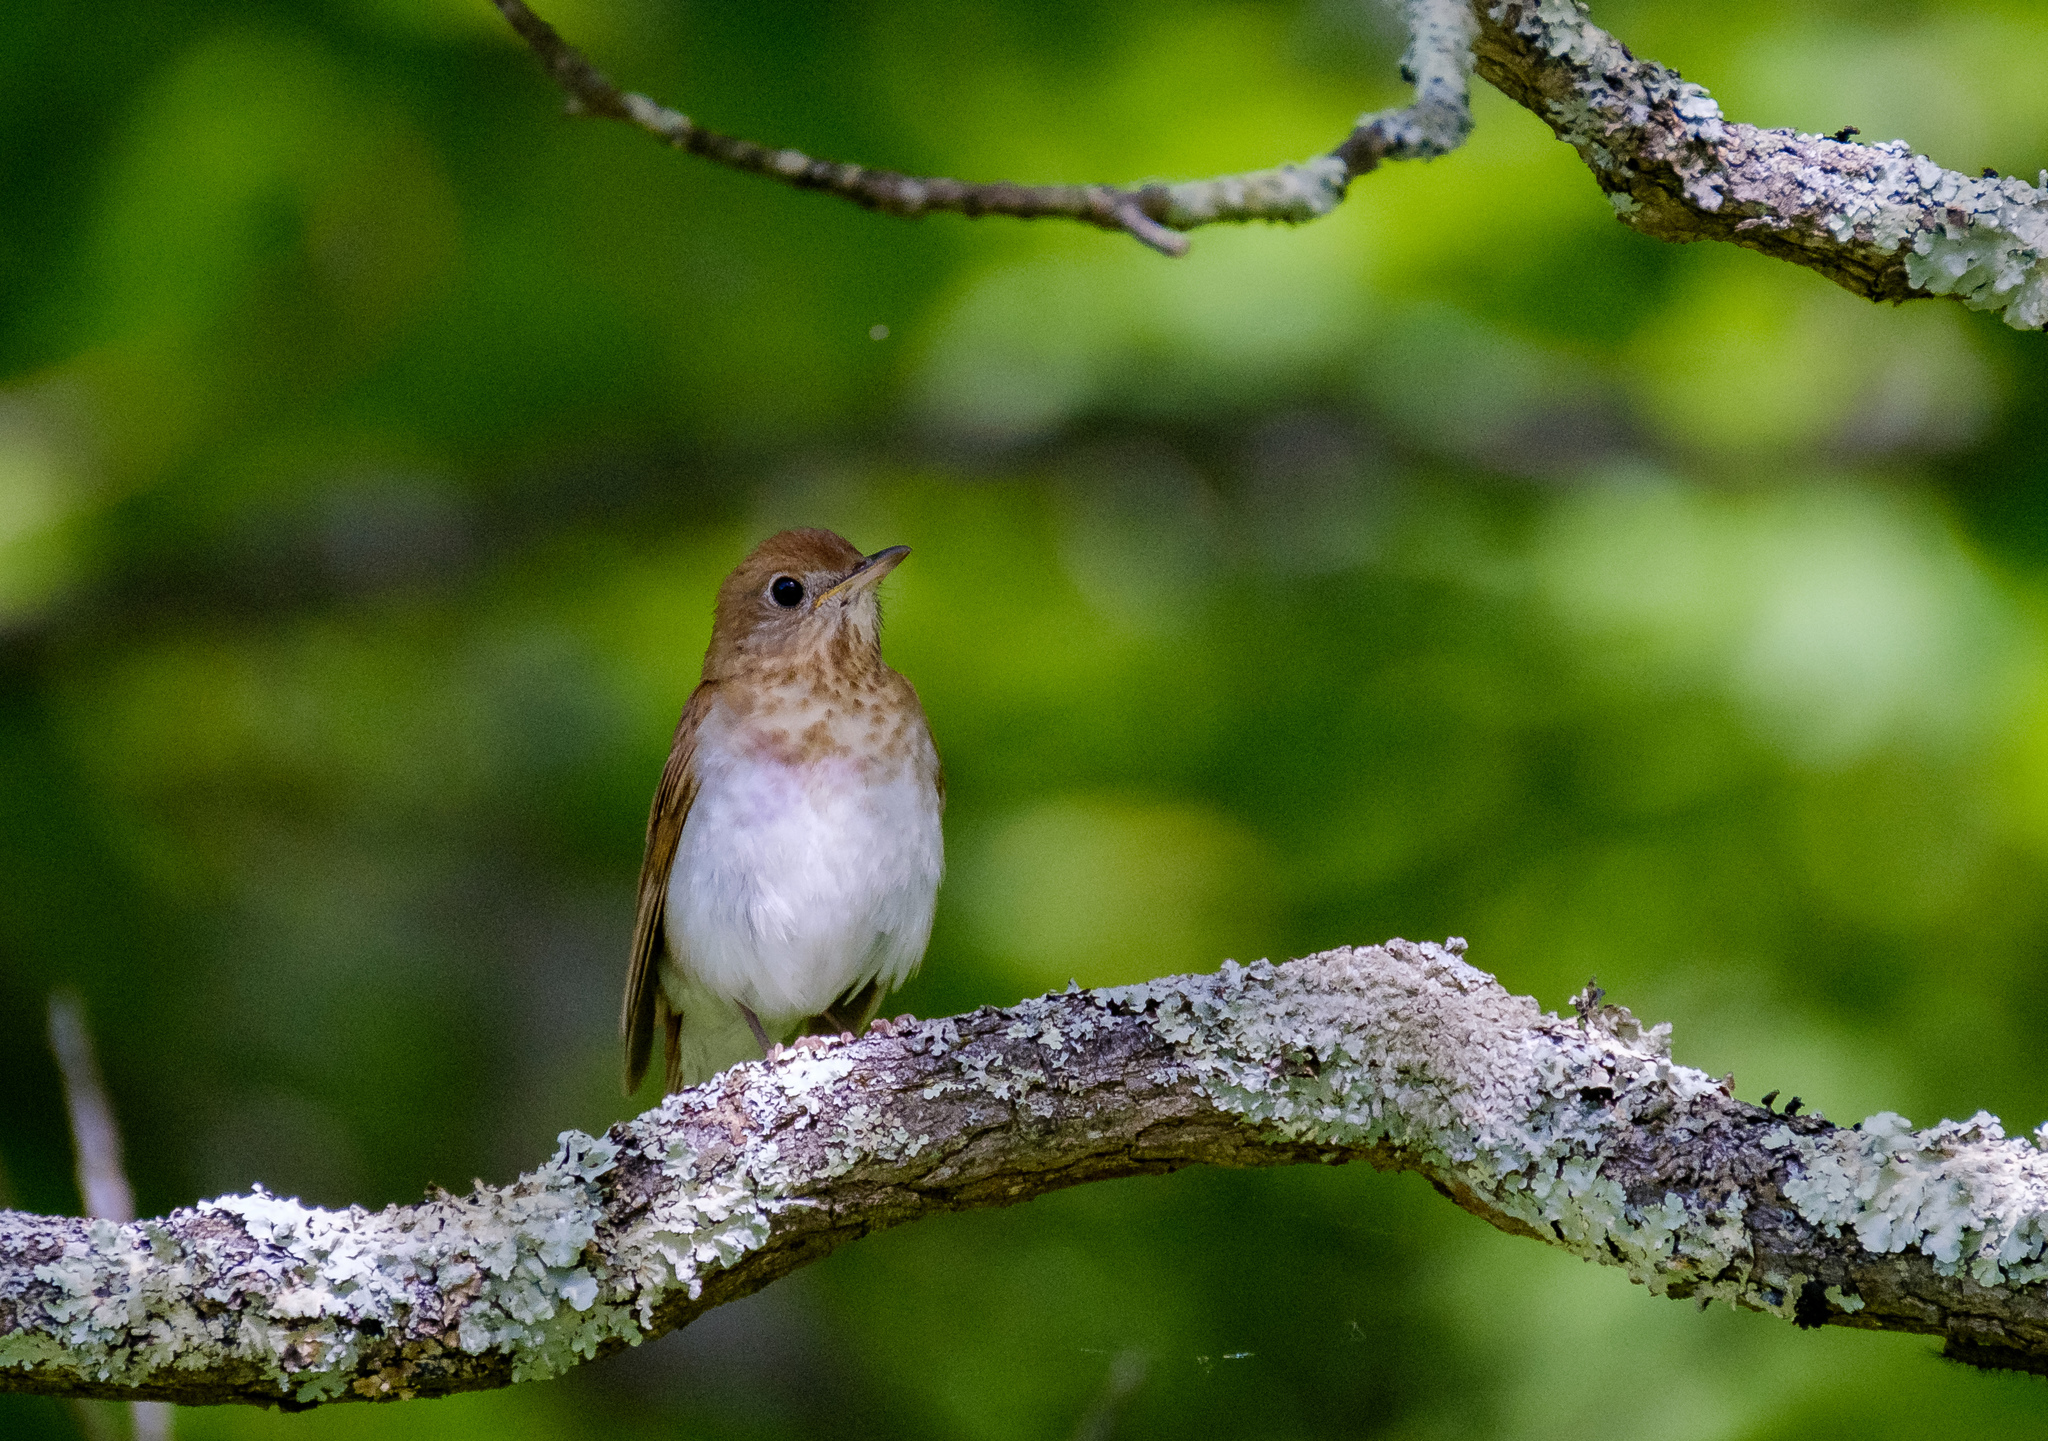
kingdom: Animalia
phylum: Chordata
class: Aves
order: Passeriformes
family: Turdidae
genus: Catharus
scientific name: Catharus fuscescens
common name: Veery
